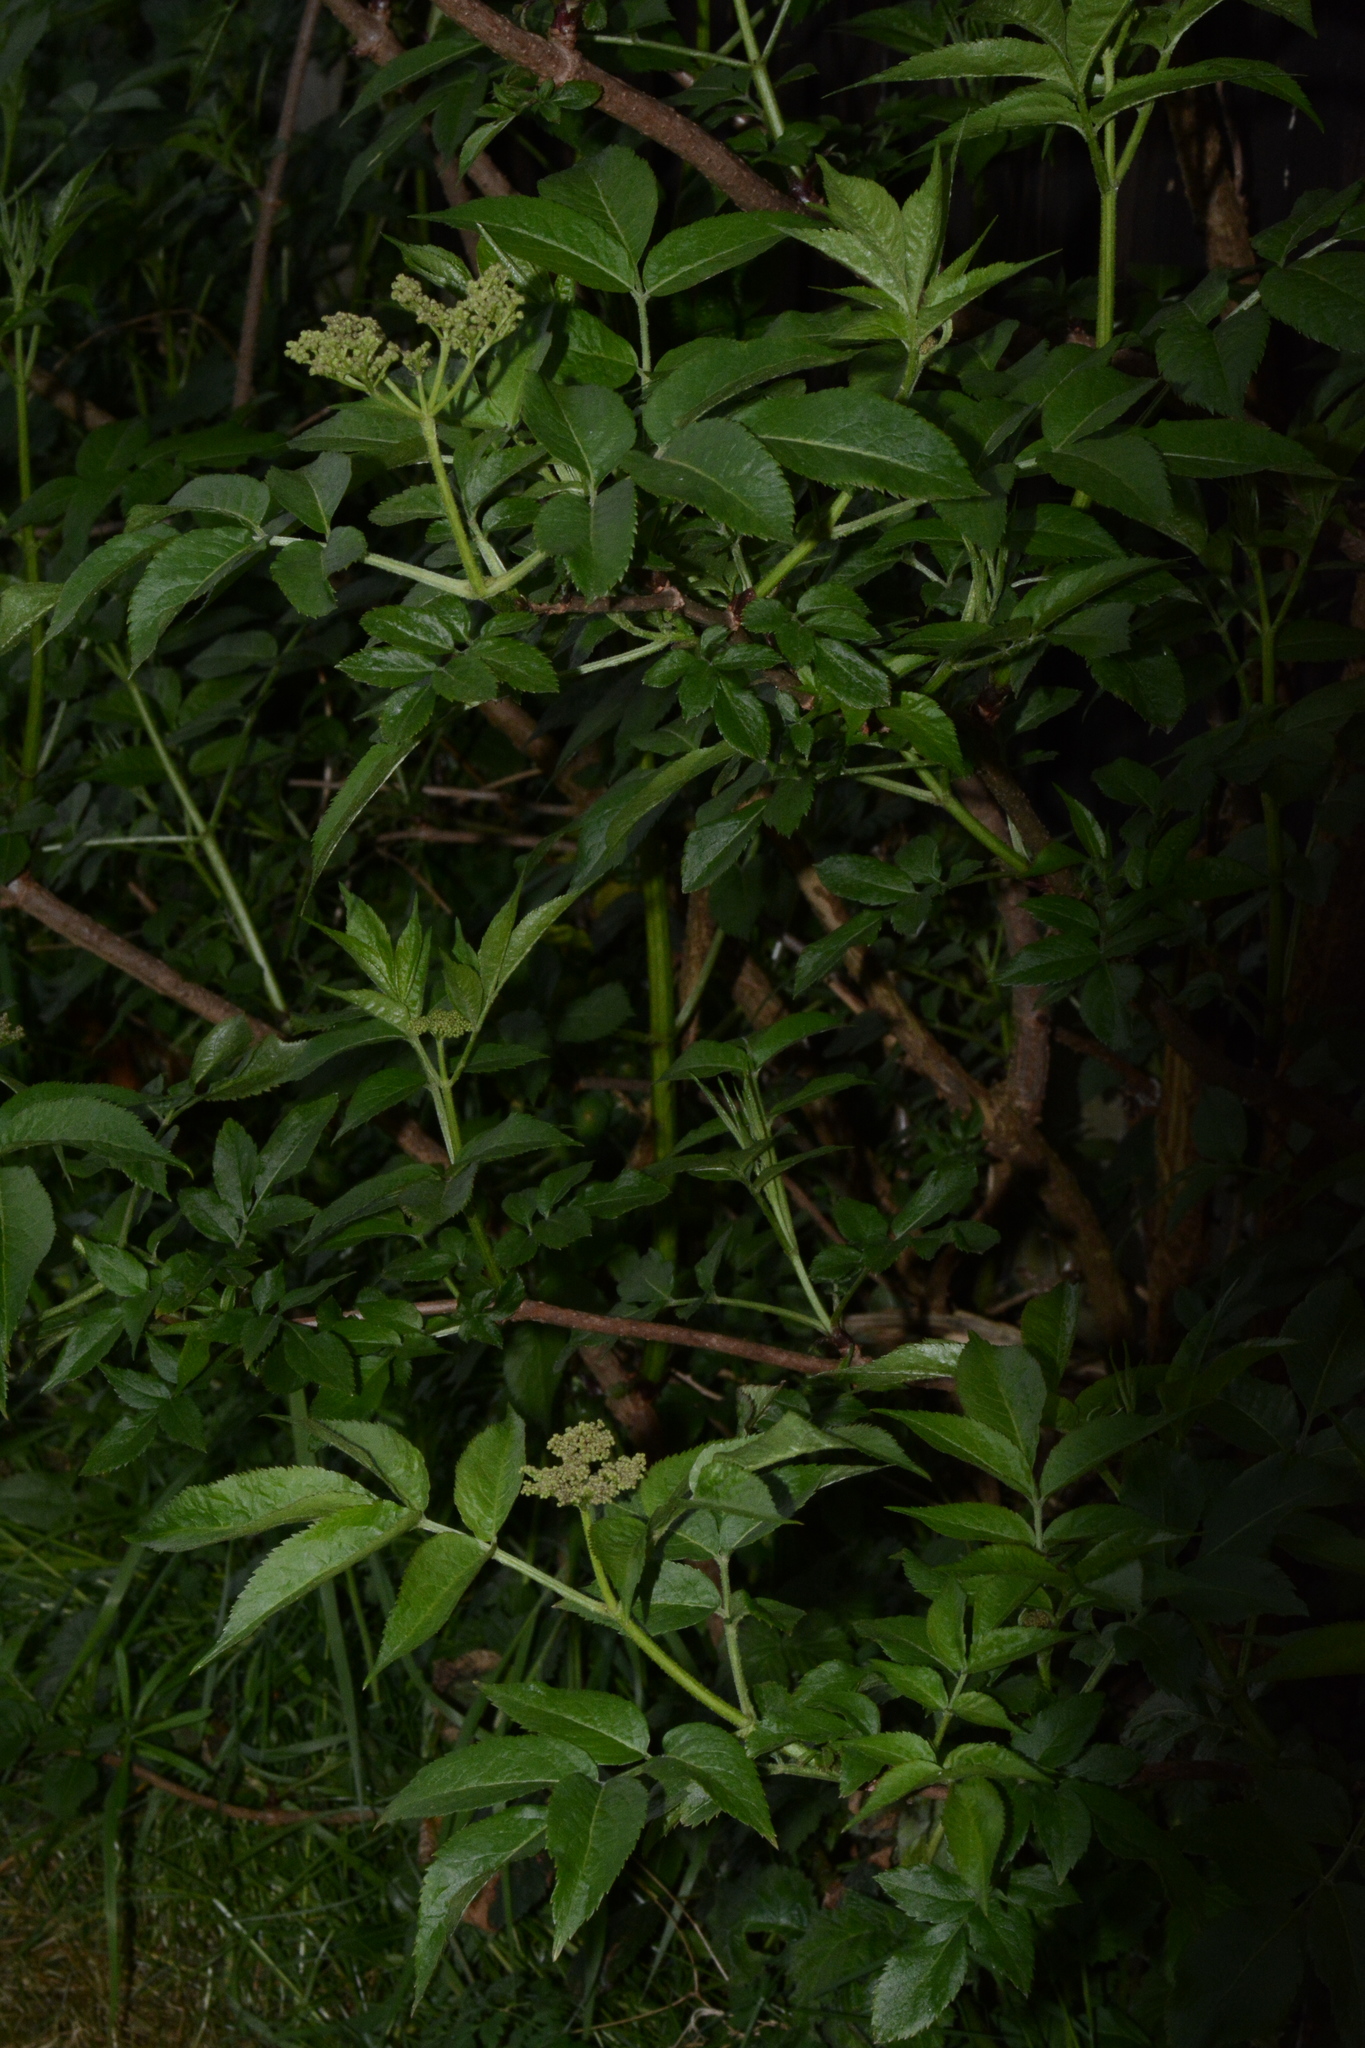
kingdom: Plantae
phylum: Tracheophyta
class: Magnoliopsida
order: Dipsacales
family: Viburnaceae
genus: Sambucus
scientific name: Sambucus nigra
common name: Elder
